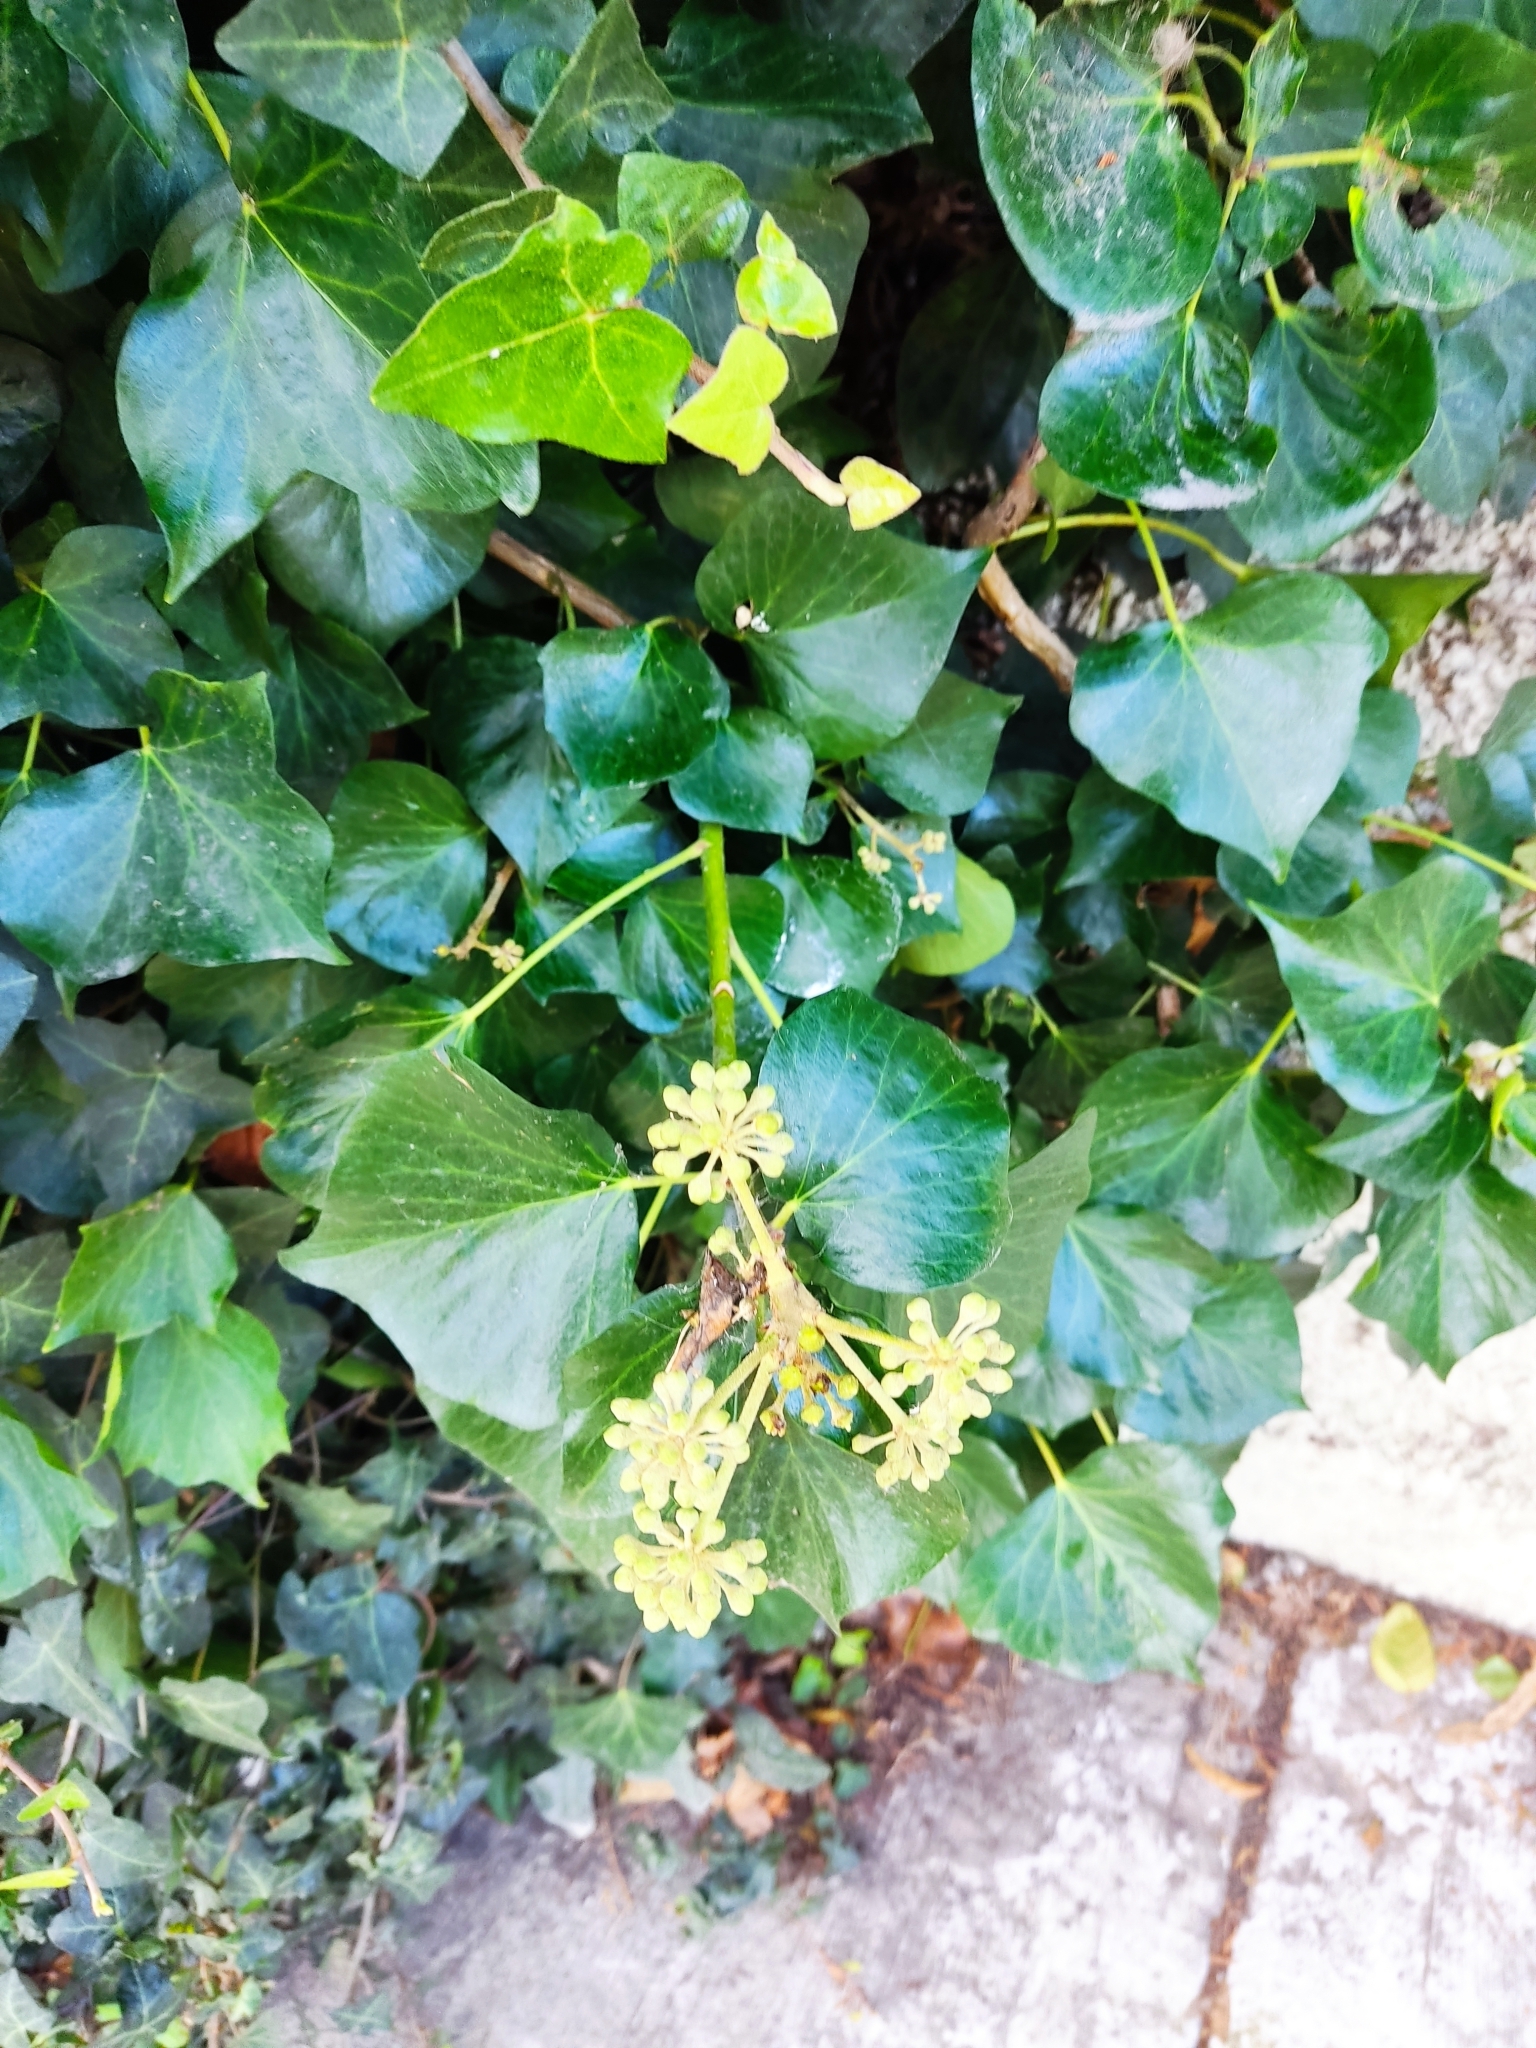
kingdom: Plantae
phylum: Tracheophyta
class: Magnoliopsida
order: Apiales
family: Araliaceae
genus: Hedera
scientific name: Hedera helix
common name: Ivy
